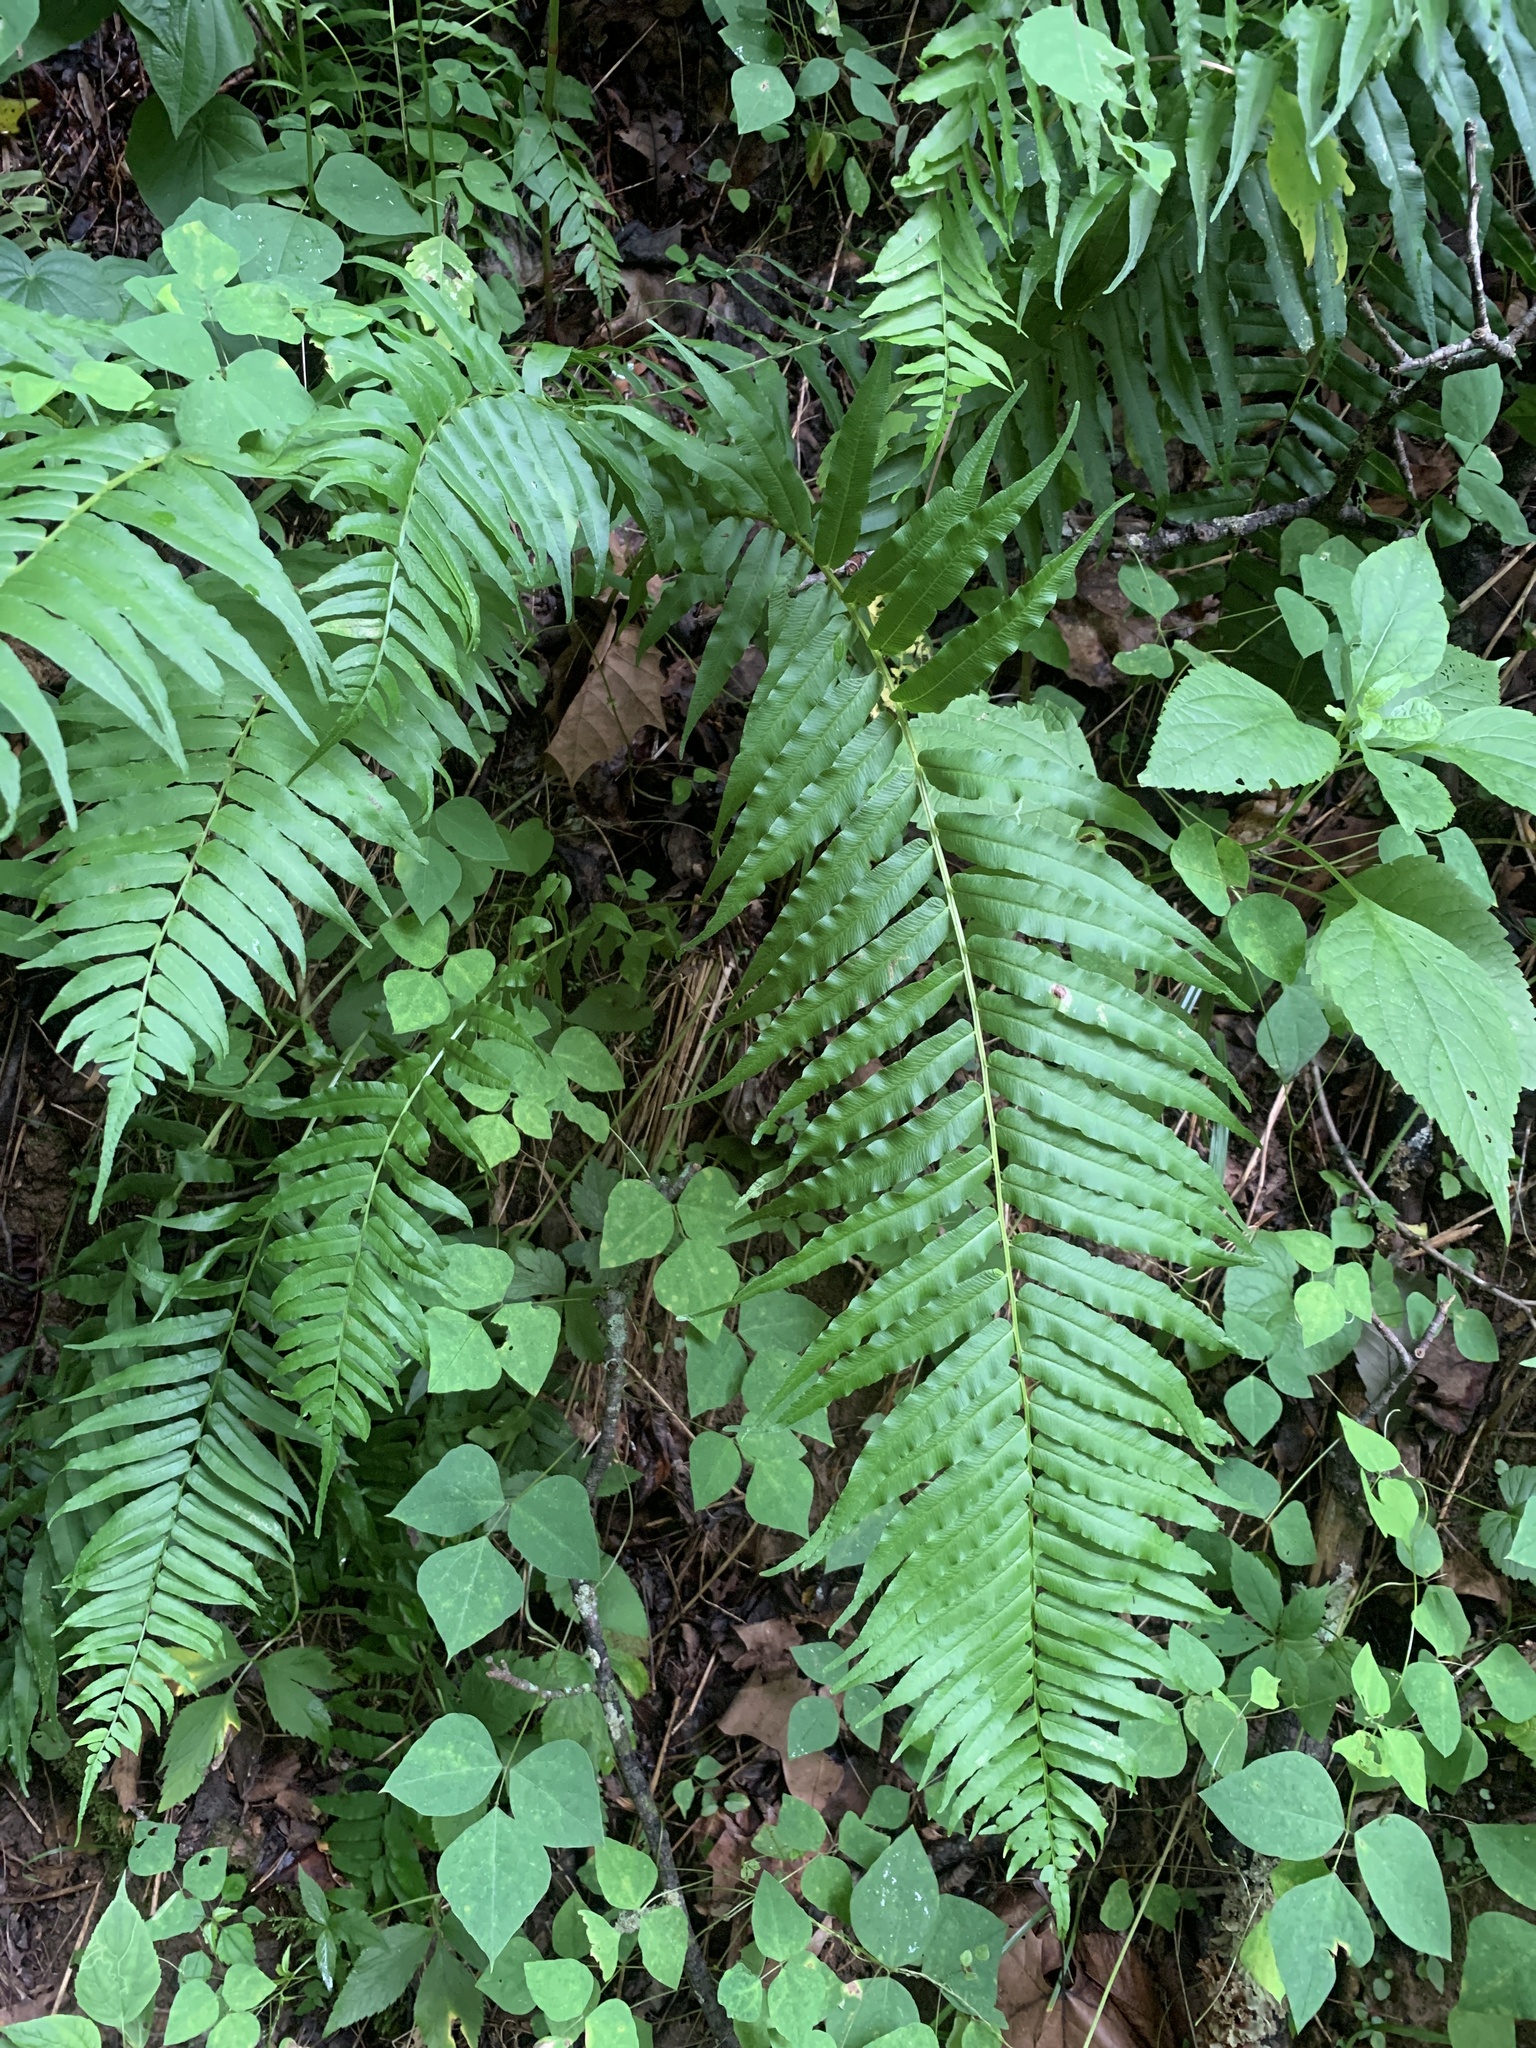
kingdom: Plantae
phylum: Tracheophyta
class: Polypodiopsida
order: Polypodiales
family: Diplaziopsidaceae
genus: Homalosorus
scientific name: Homalosorus pycnocarpos
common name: Glade fern
